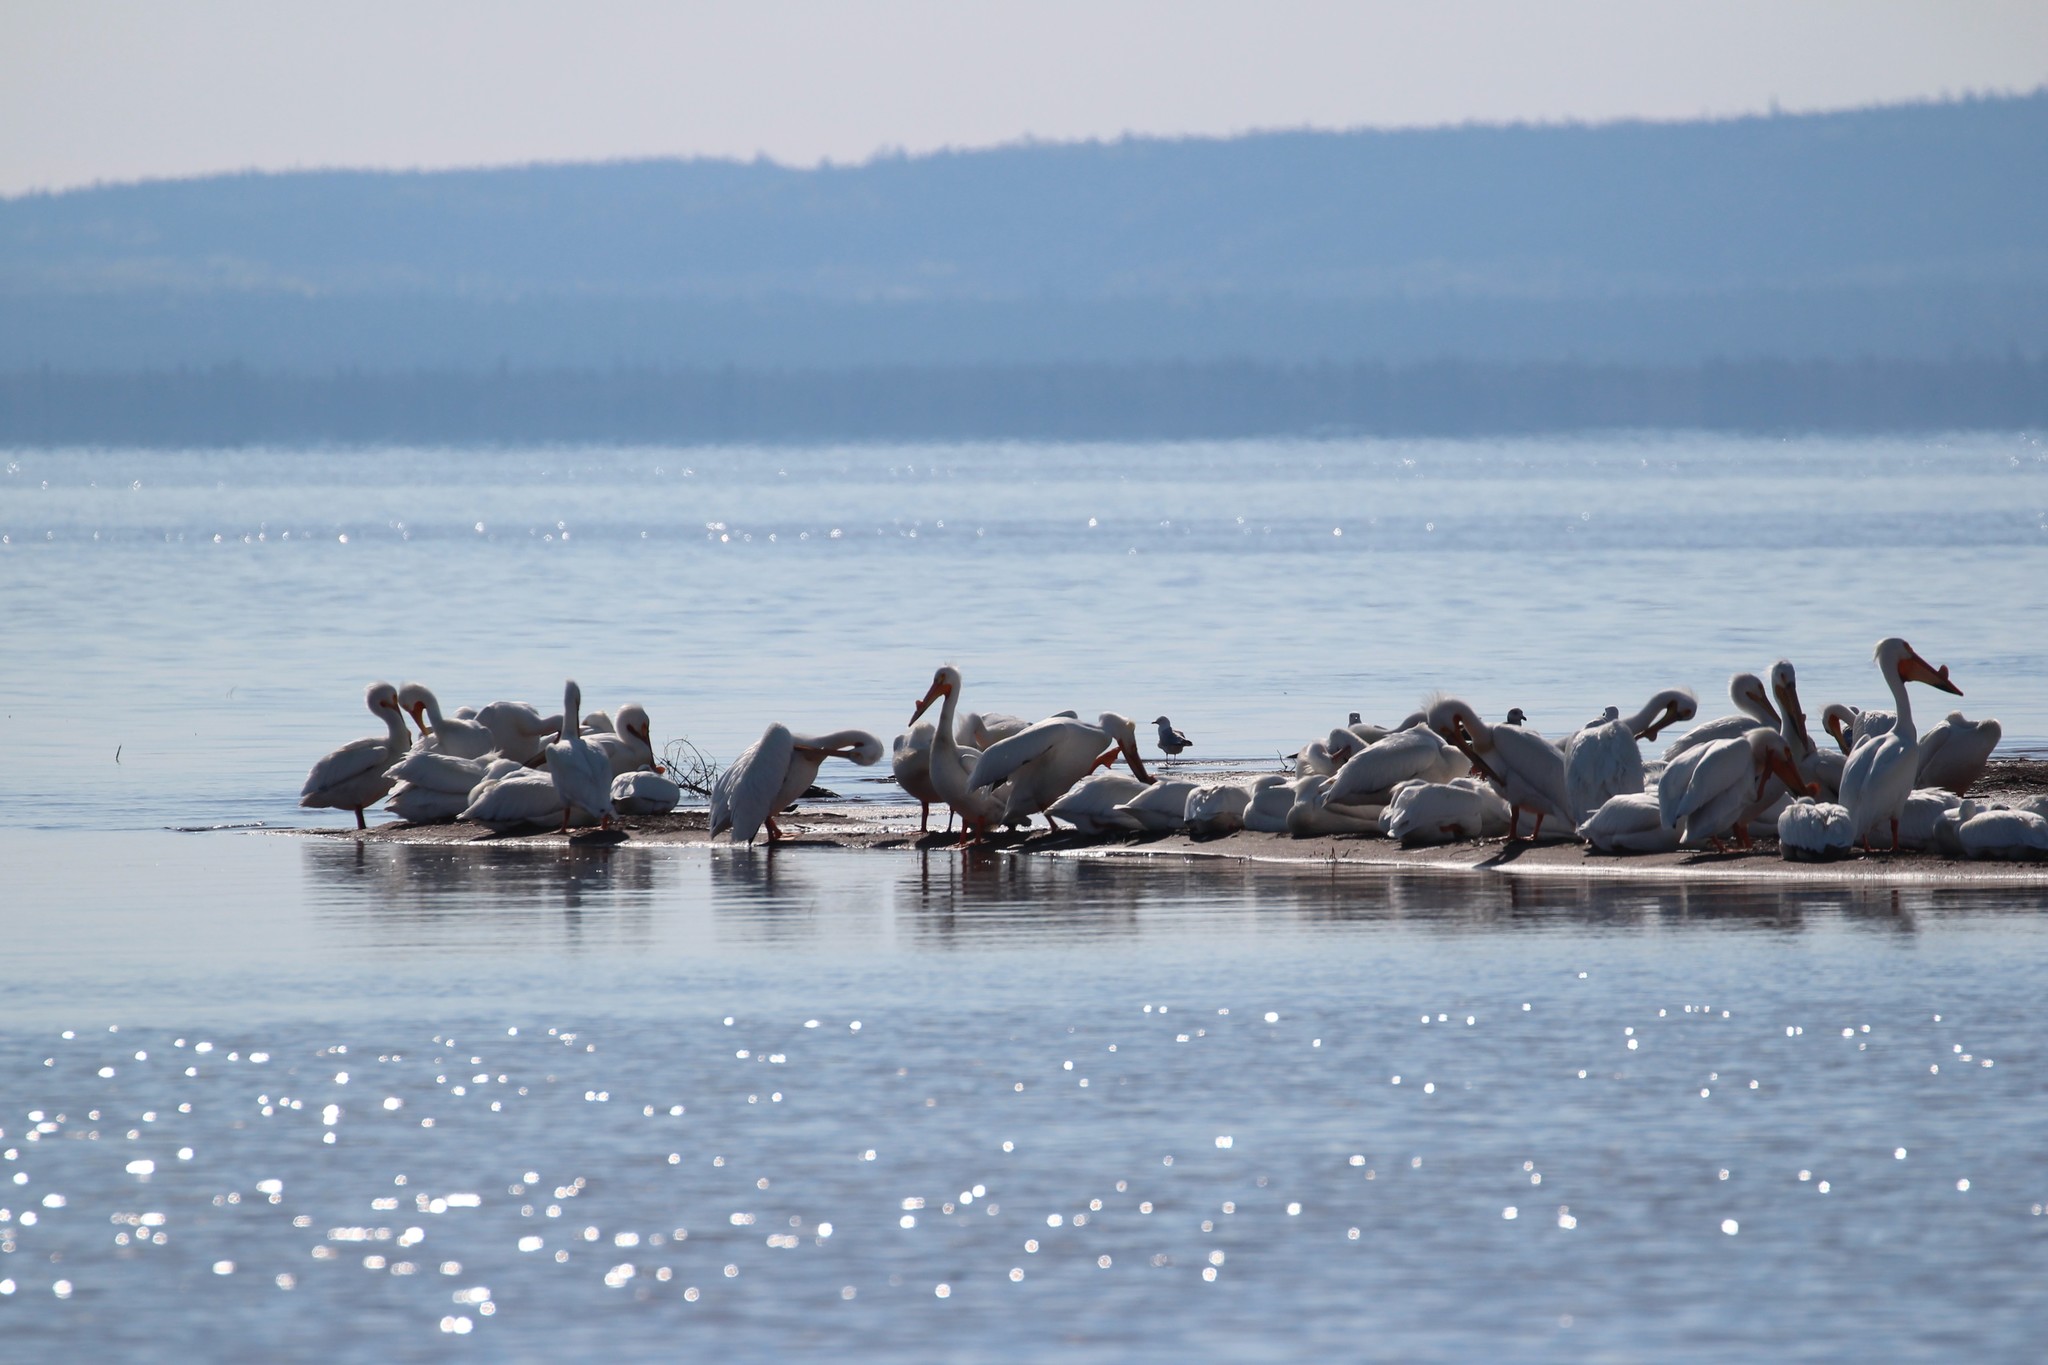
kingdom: Animalia
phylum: Chordata
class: Aves
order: Pelecaniformes
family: Pelecanidae
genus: Pelecanus
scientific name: Pelecanus erythrorhynchos
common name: American white pelican
